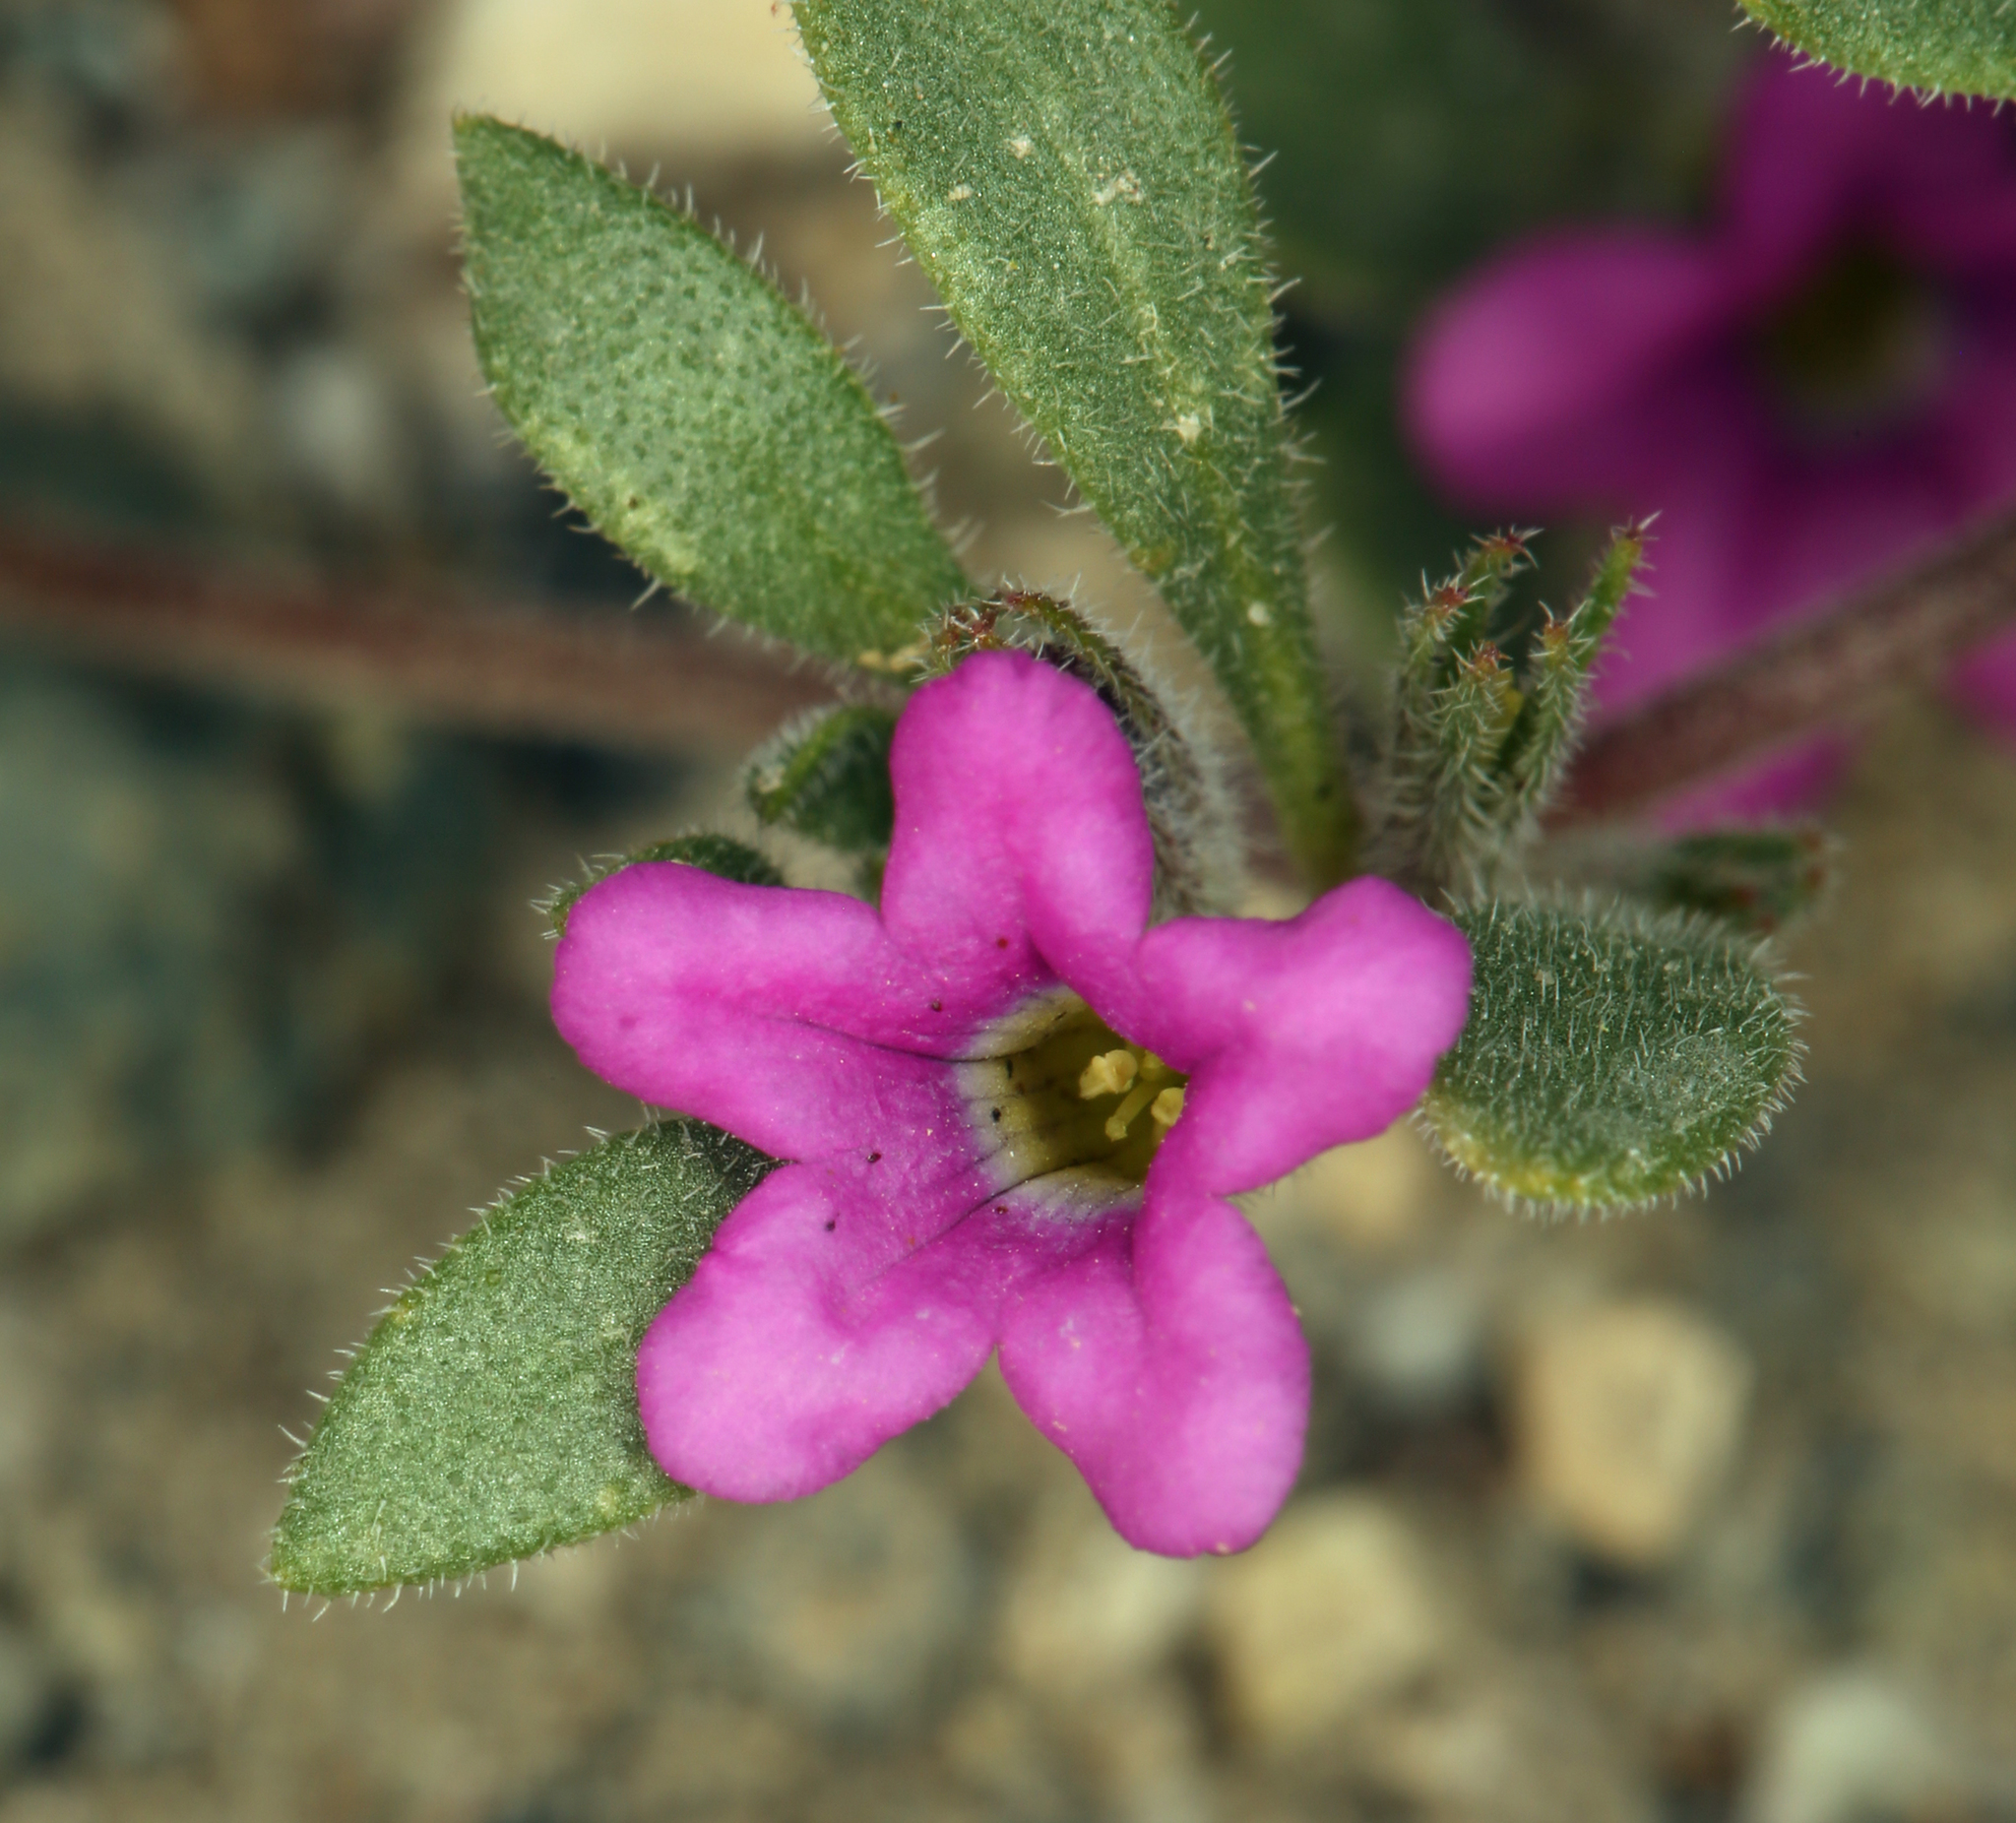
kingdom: Plantae
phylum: Tracheophyta
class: Magnoliopsida
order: Boraginales
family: Namaceae
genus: Nama
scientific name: Nama demissa
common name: Leafy nama
